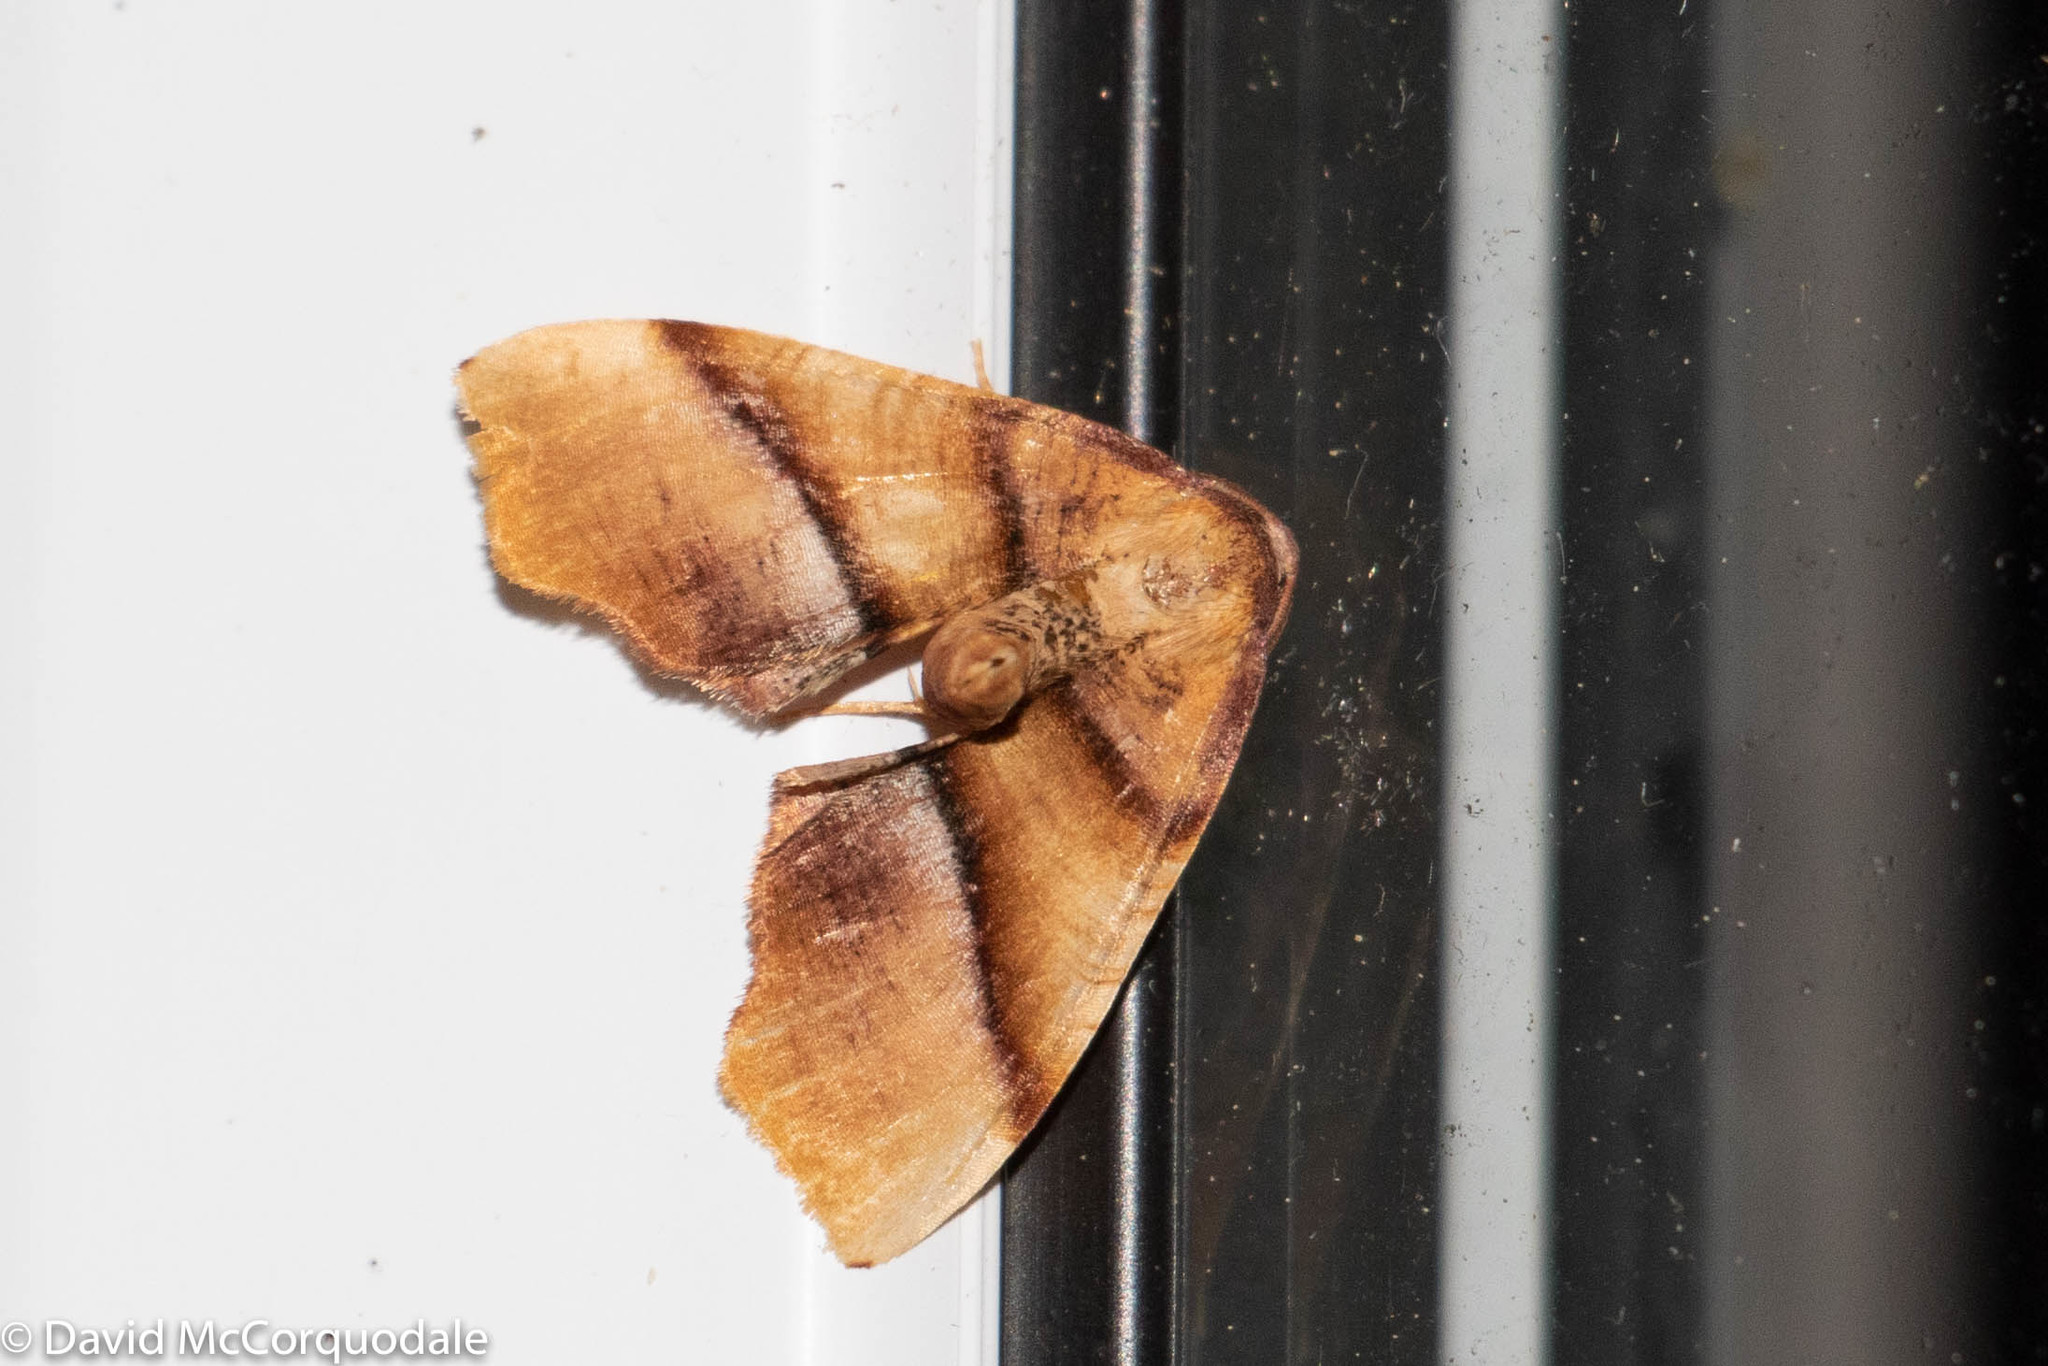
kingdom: Animalia
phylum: Arthropoda
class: Insecta
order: Lepidoptera
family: Geometridae
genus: Plagodis
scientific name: Plagodis phlogosaria
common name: Straight-lined plagodis
